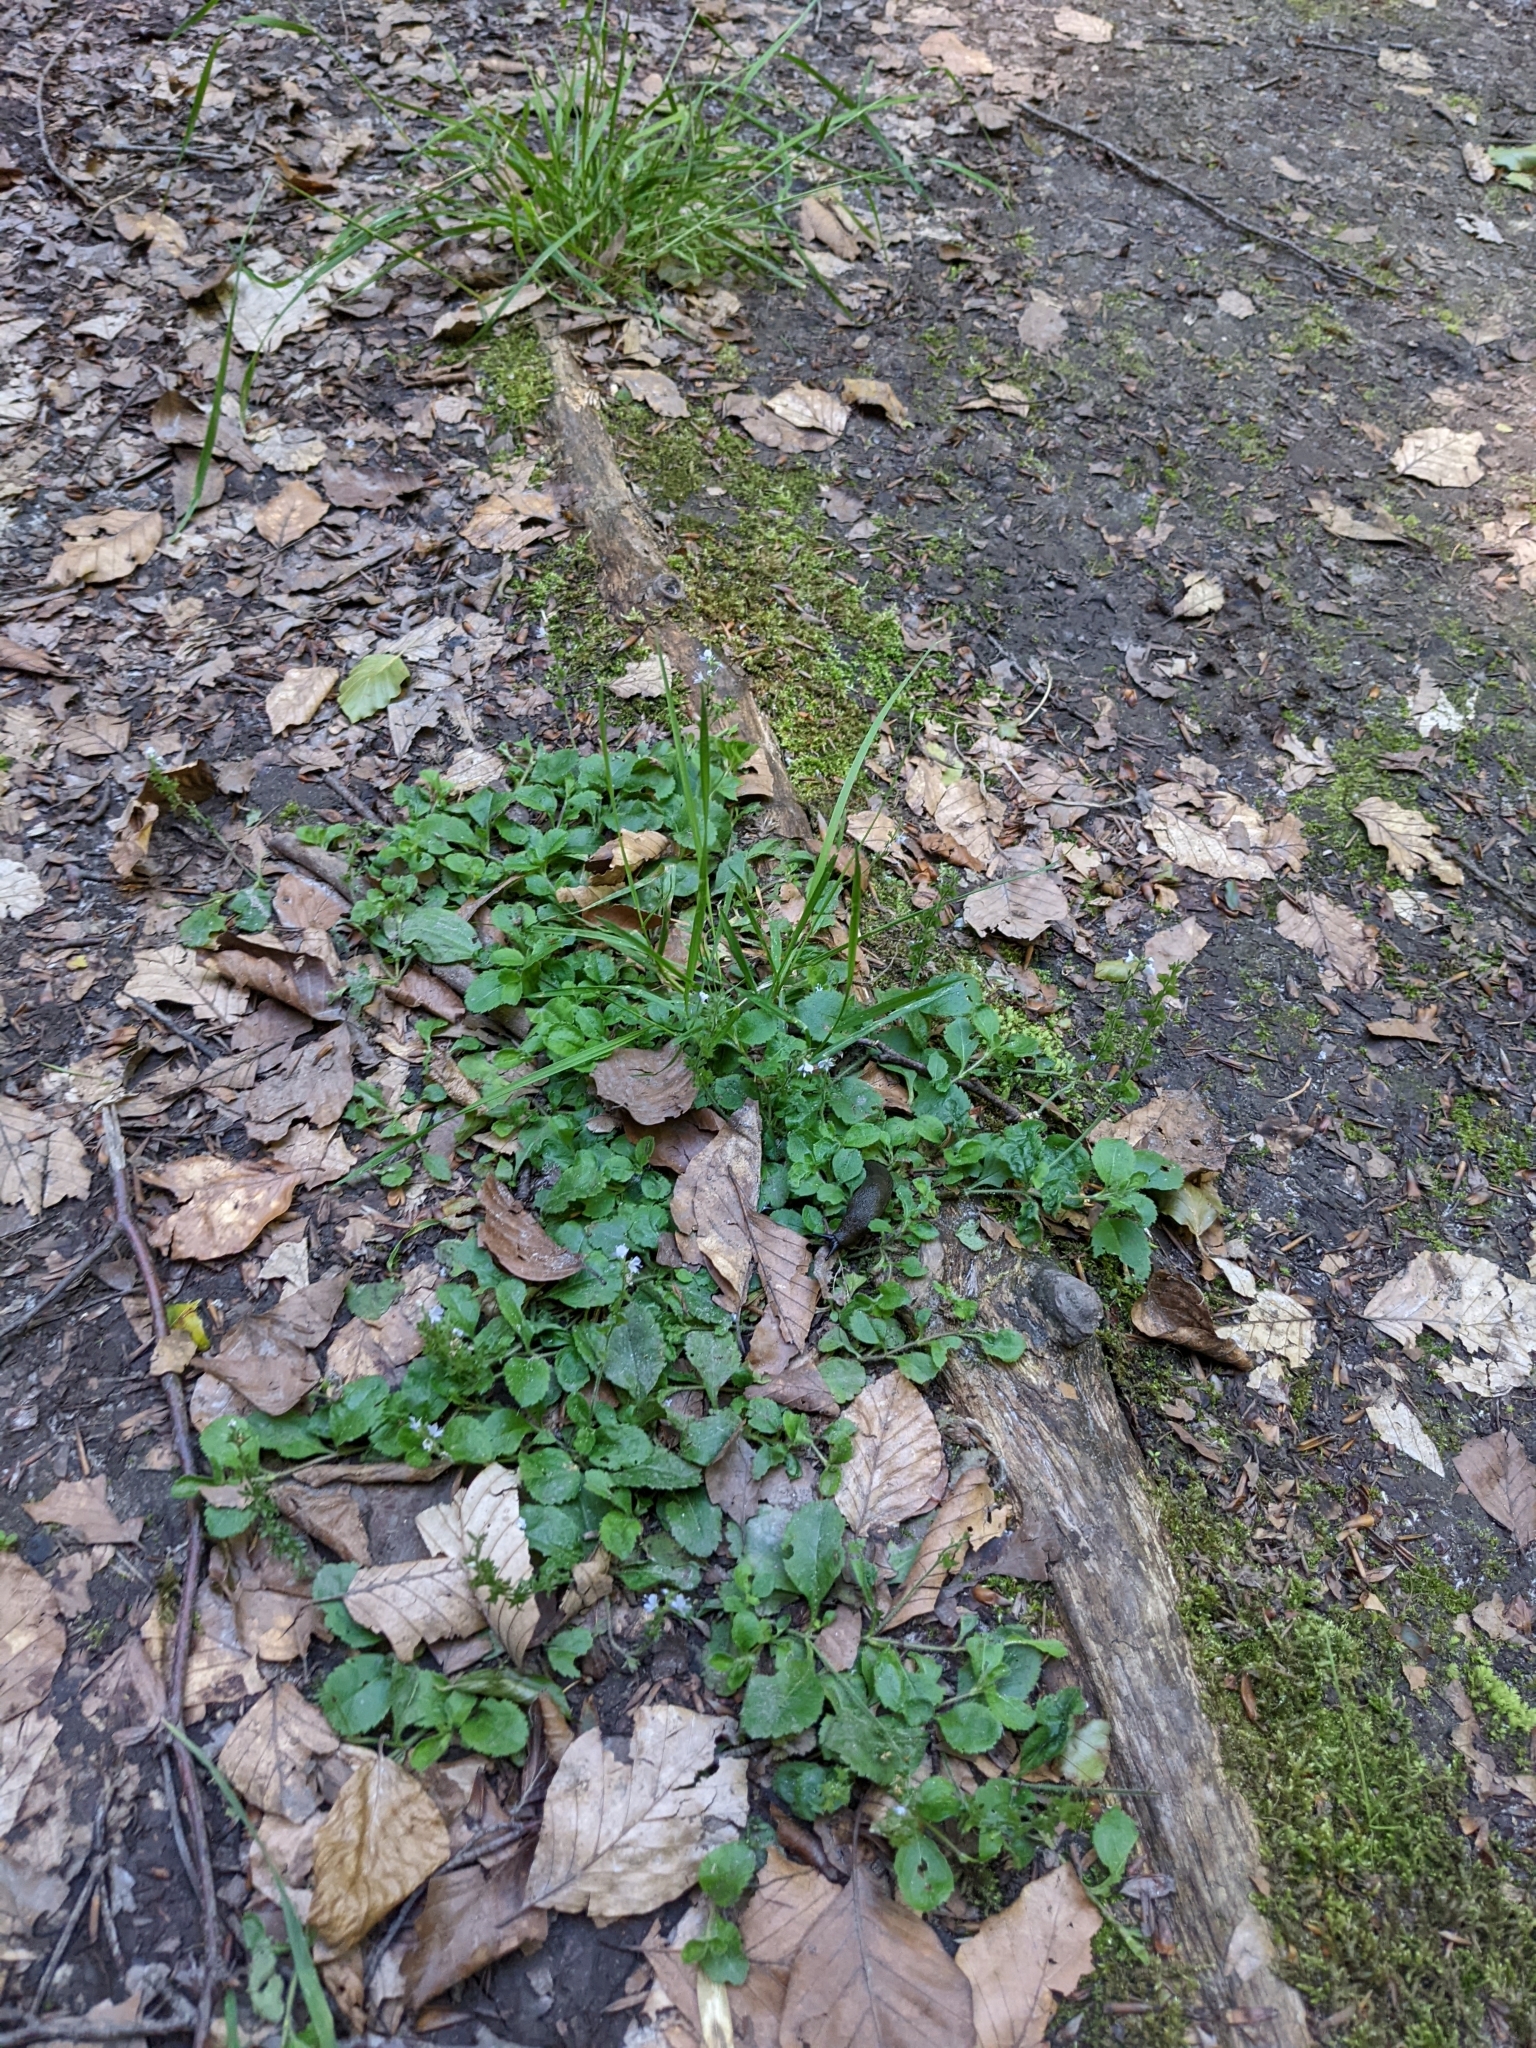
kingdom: Plantae
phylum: Tracheophyta
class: Magnoliopsida
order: Lamiales
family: Plantaginaceae
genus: Veronica
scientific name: Veronica officinalis
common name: Common speedwell
